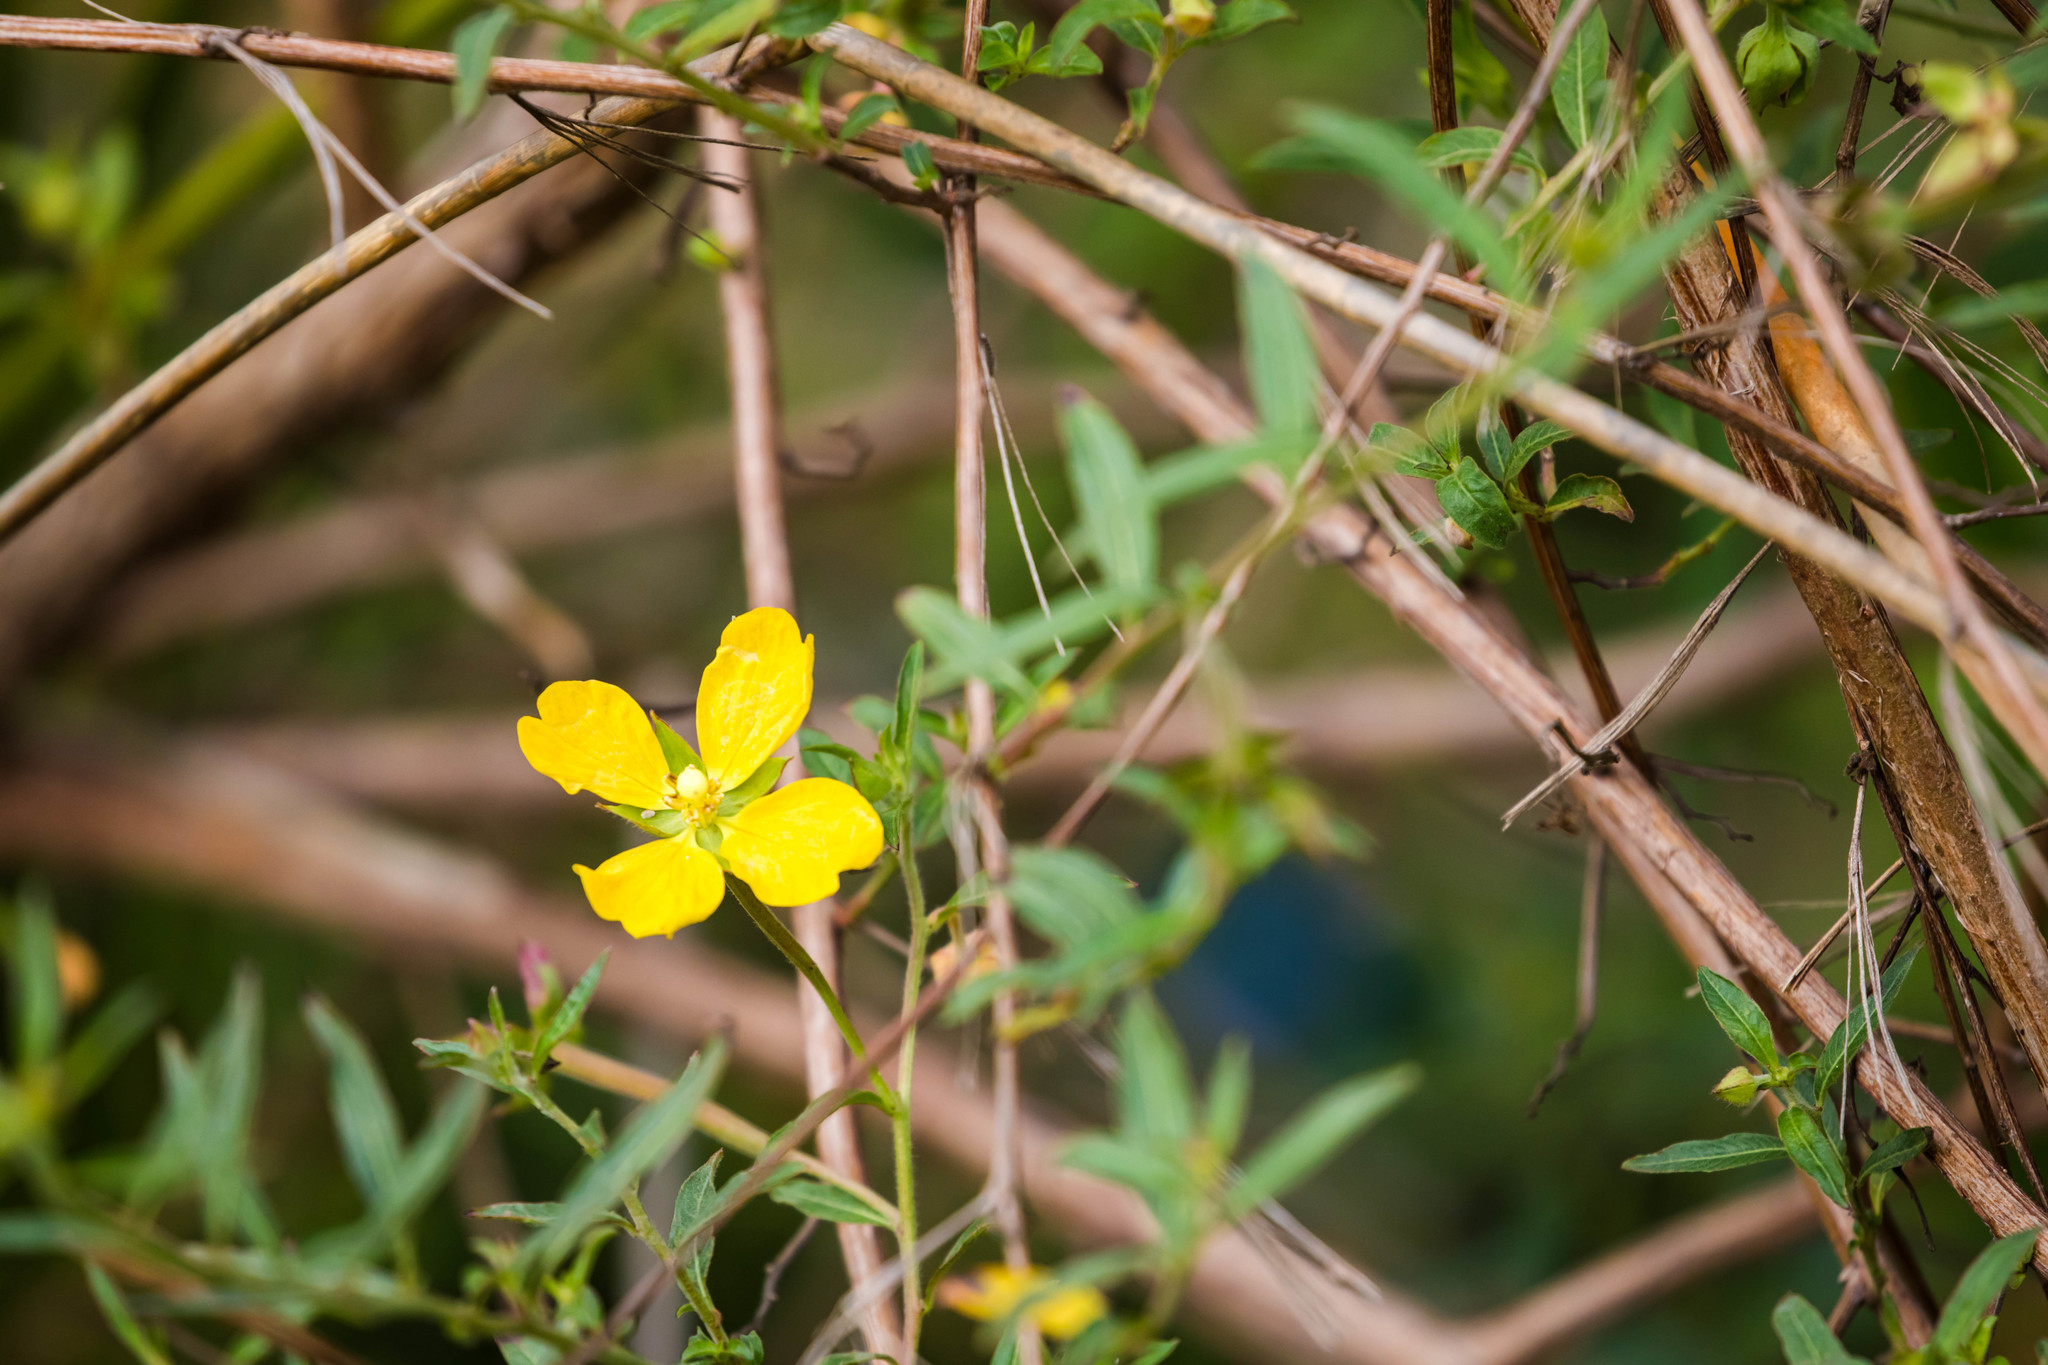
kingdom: Plantae
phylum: Tracheophyta
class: Magnoliopsida
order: Myrtales
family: Onagraceae
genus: Ludwigia
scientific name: Ludwigia octovalvis
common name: Water-primrose
